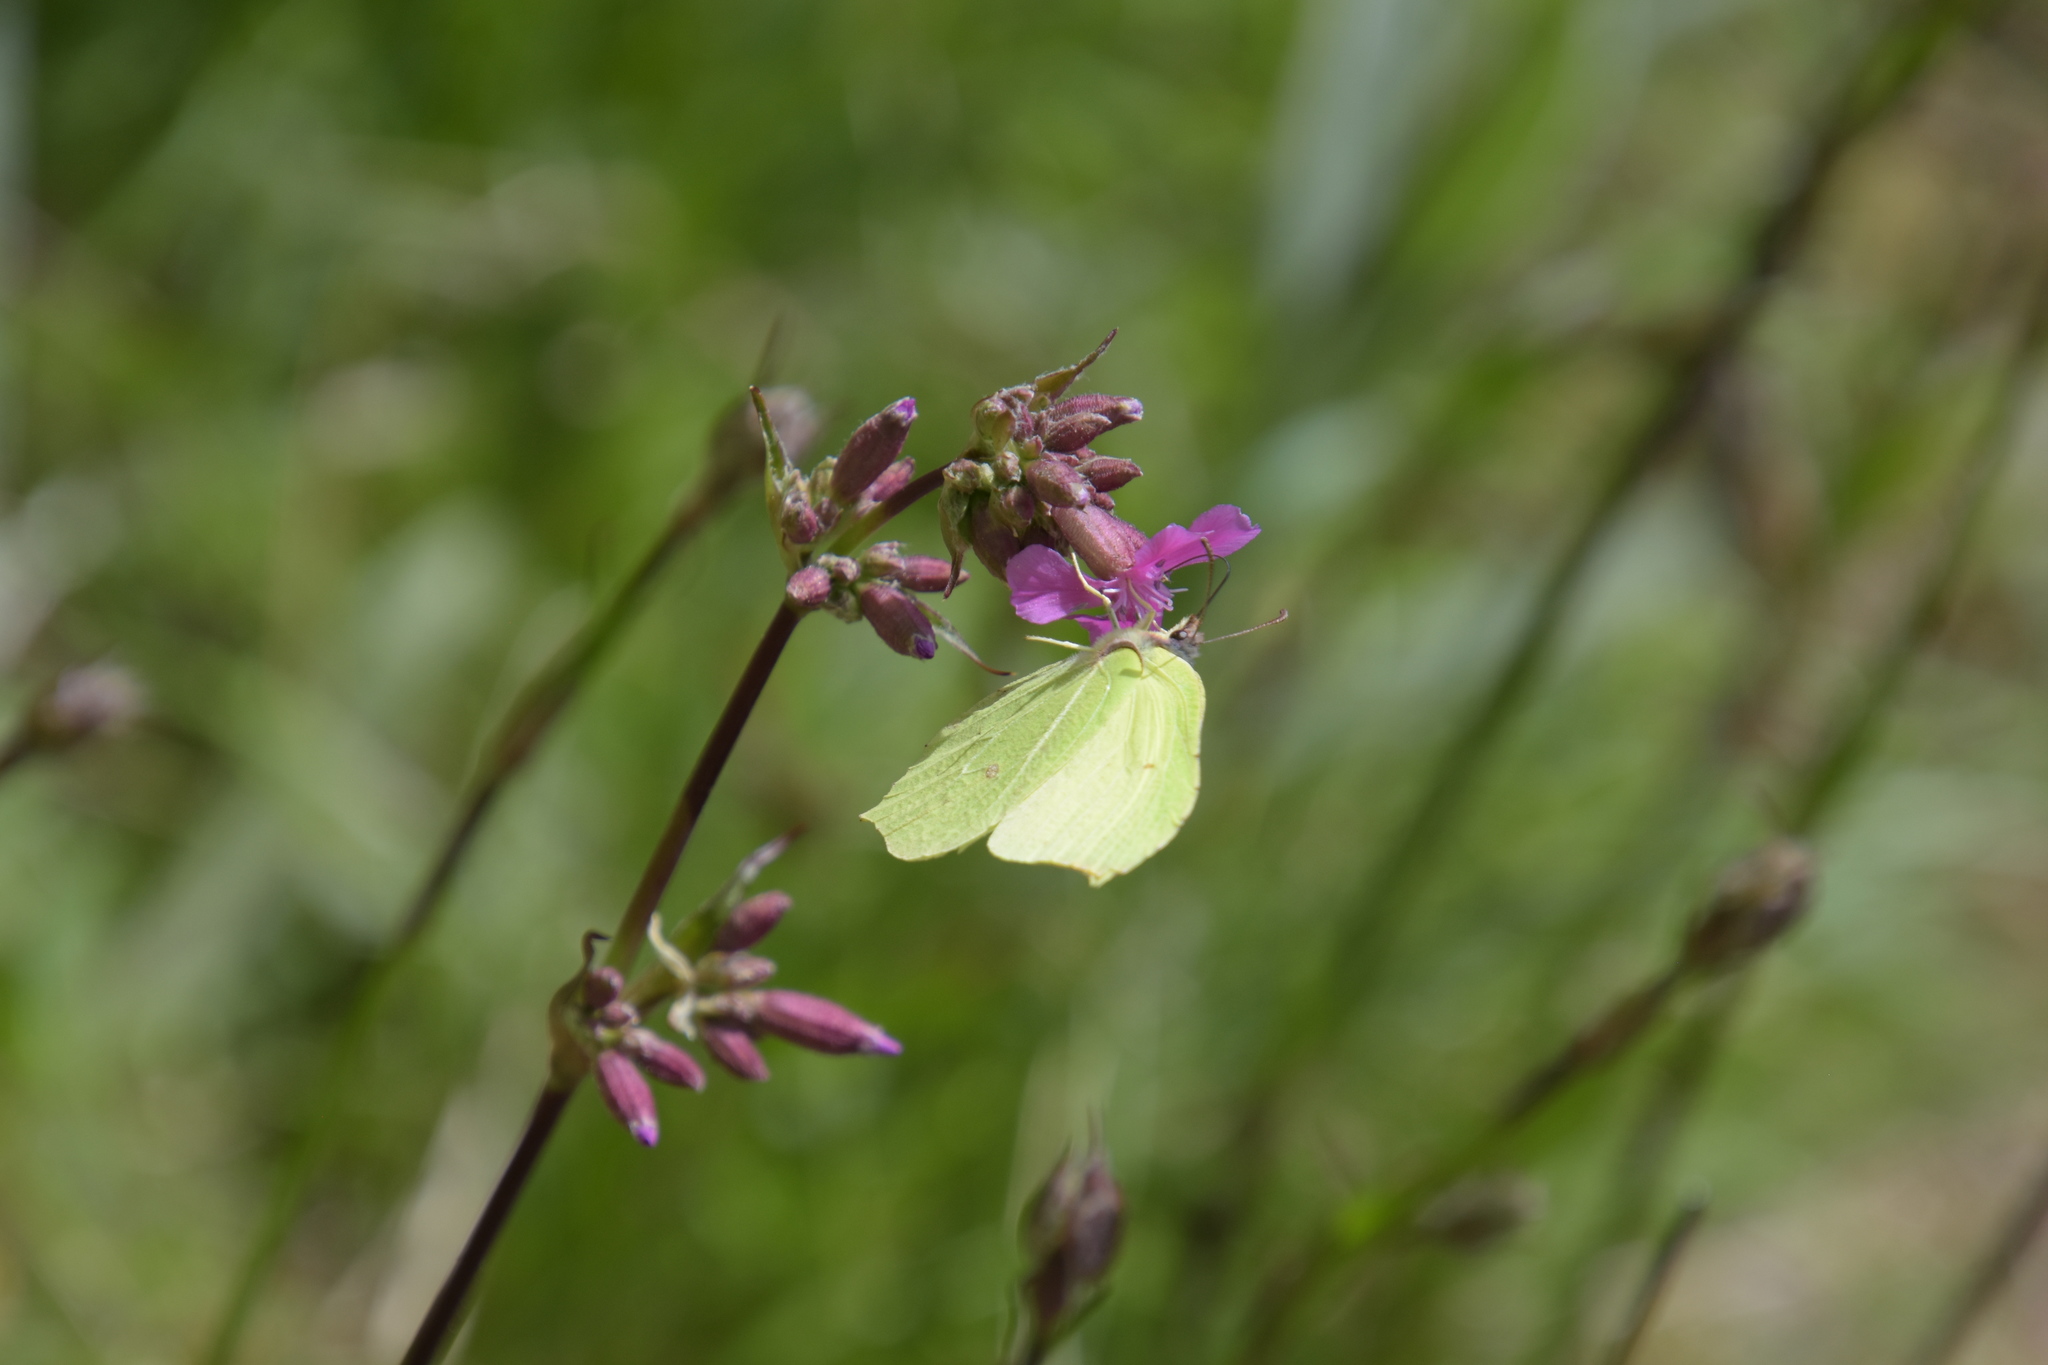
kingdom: Animalia
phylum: Arthropoda
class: Insecta
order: Lepidoptera
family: Pieridae
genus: Gonepteryx
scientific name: Gonepteryx rhamni
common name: Brimstone
